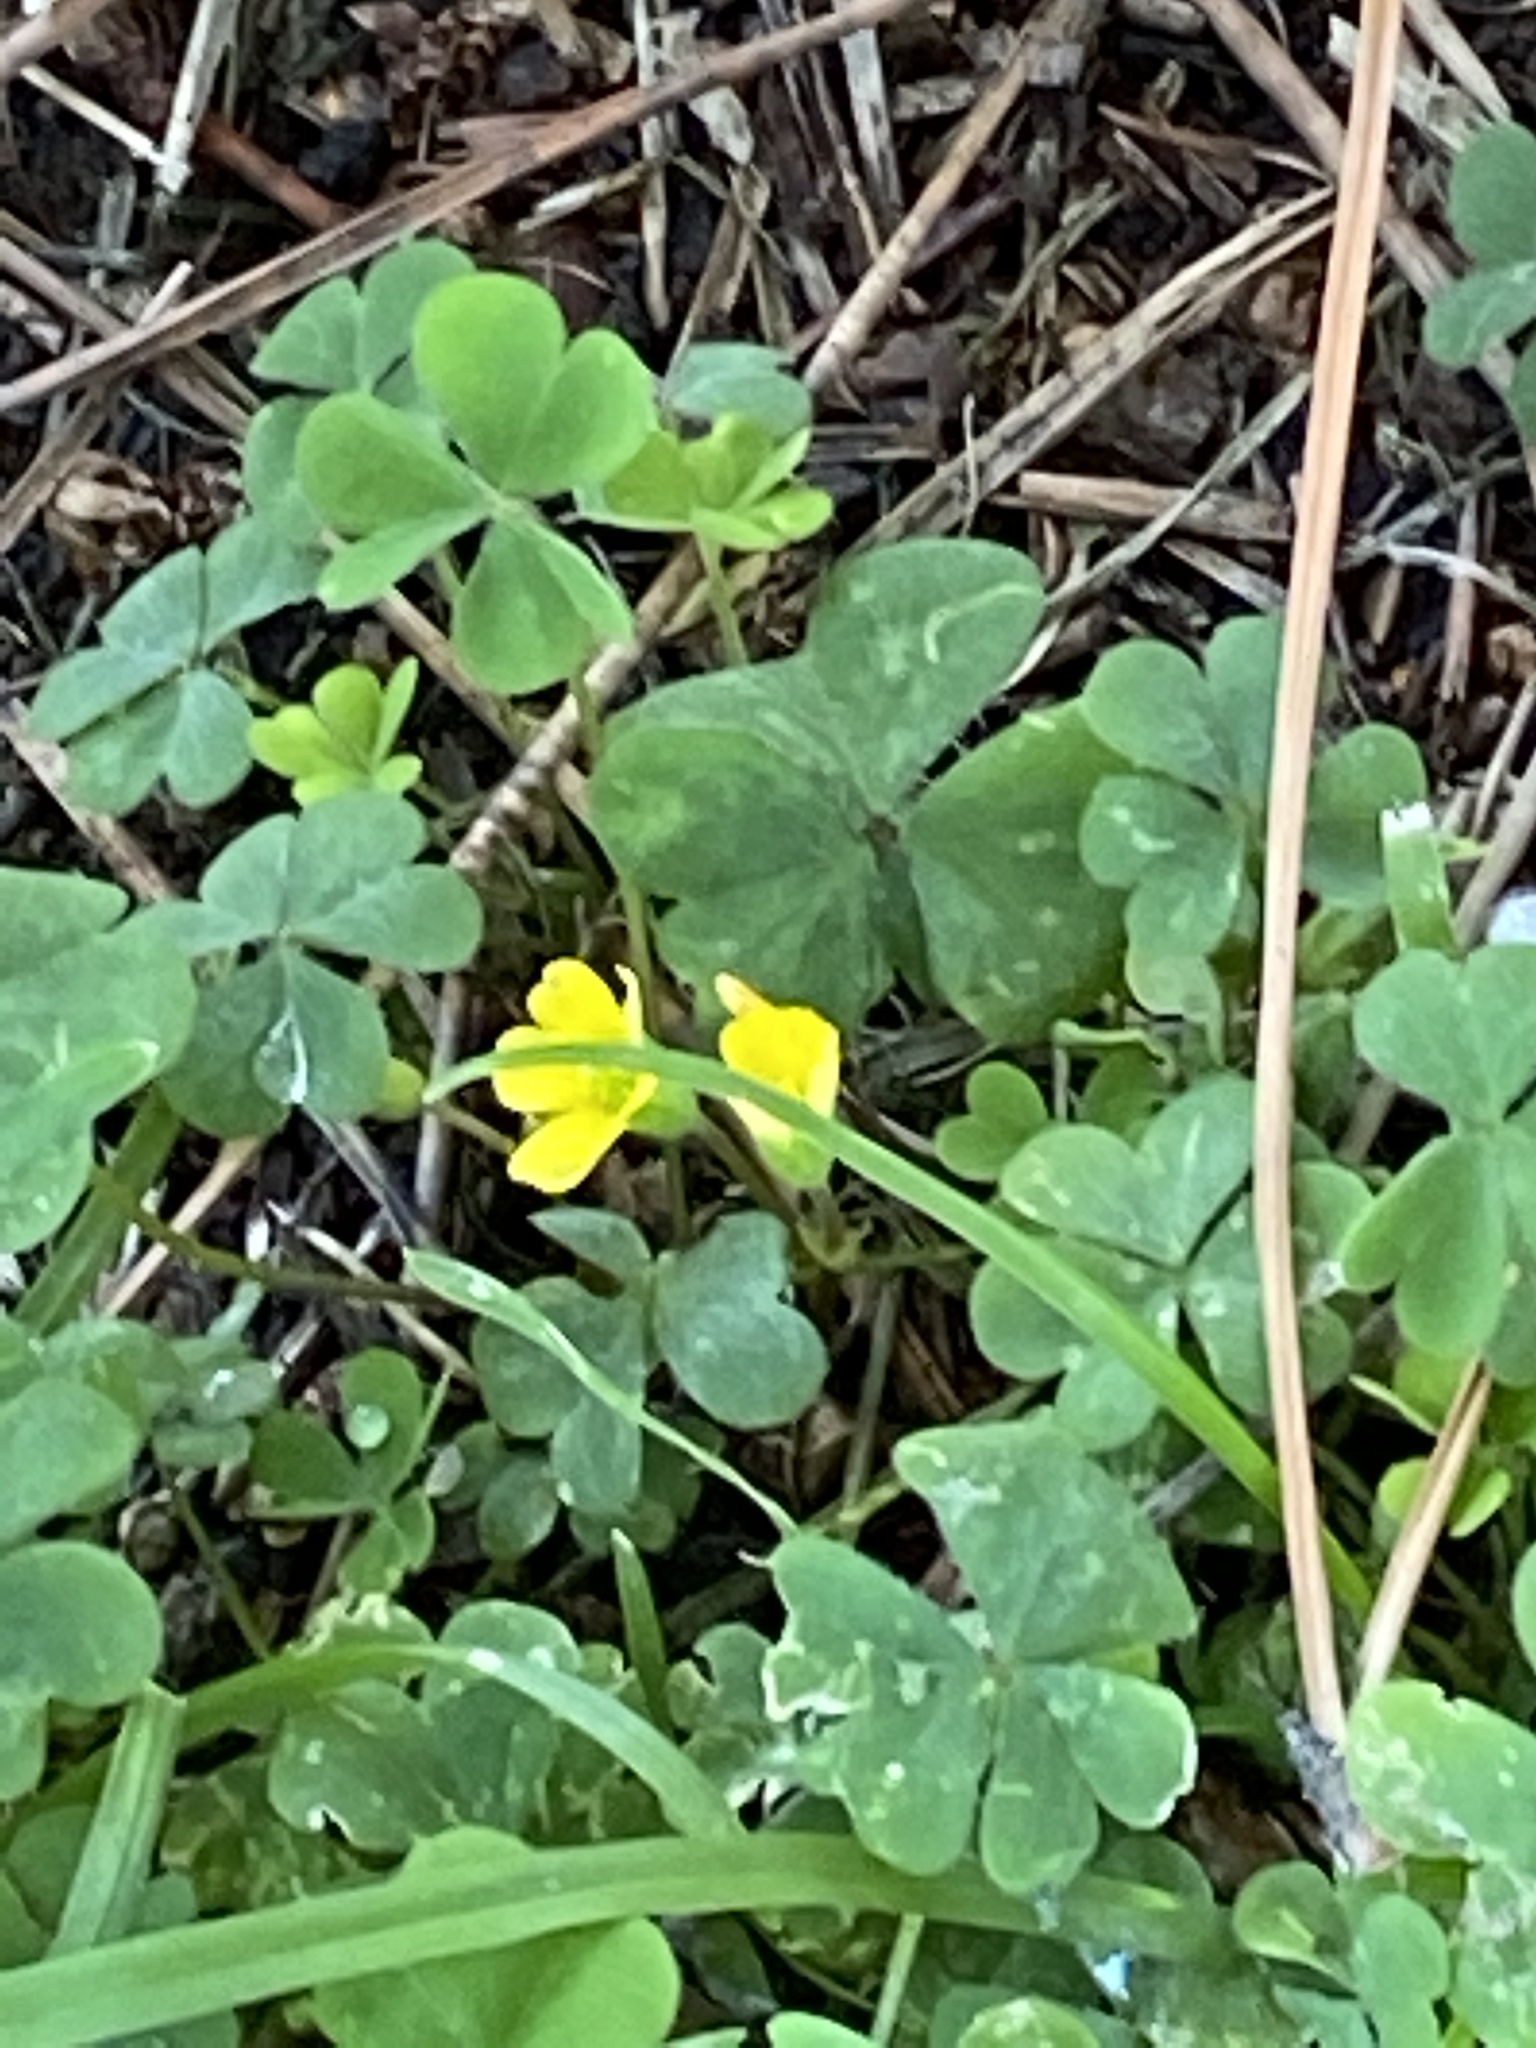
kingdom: Plantae
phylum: Tracheophyta
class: Magnoliopsida
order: Oxalidales
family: Oxalidaceae
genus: Oxalis
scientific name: Oxalis corniculata
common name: Procumbent yellow-sorrel
